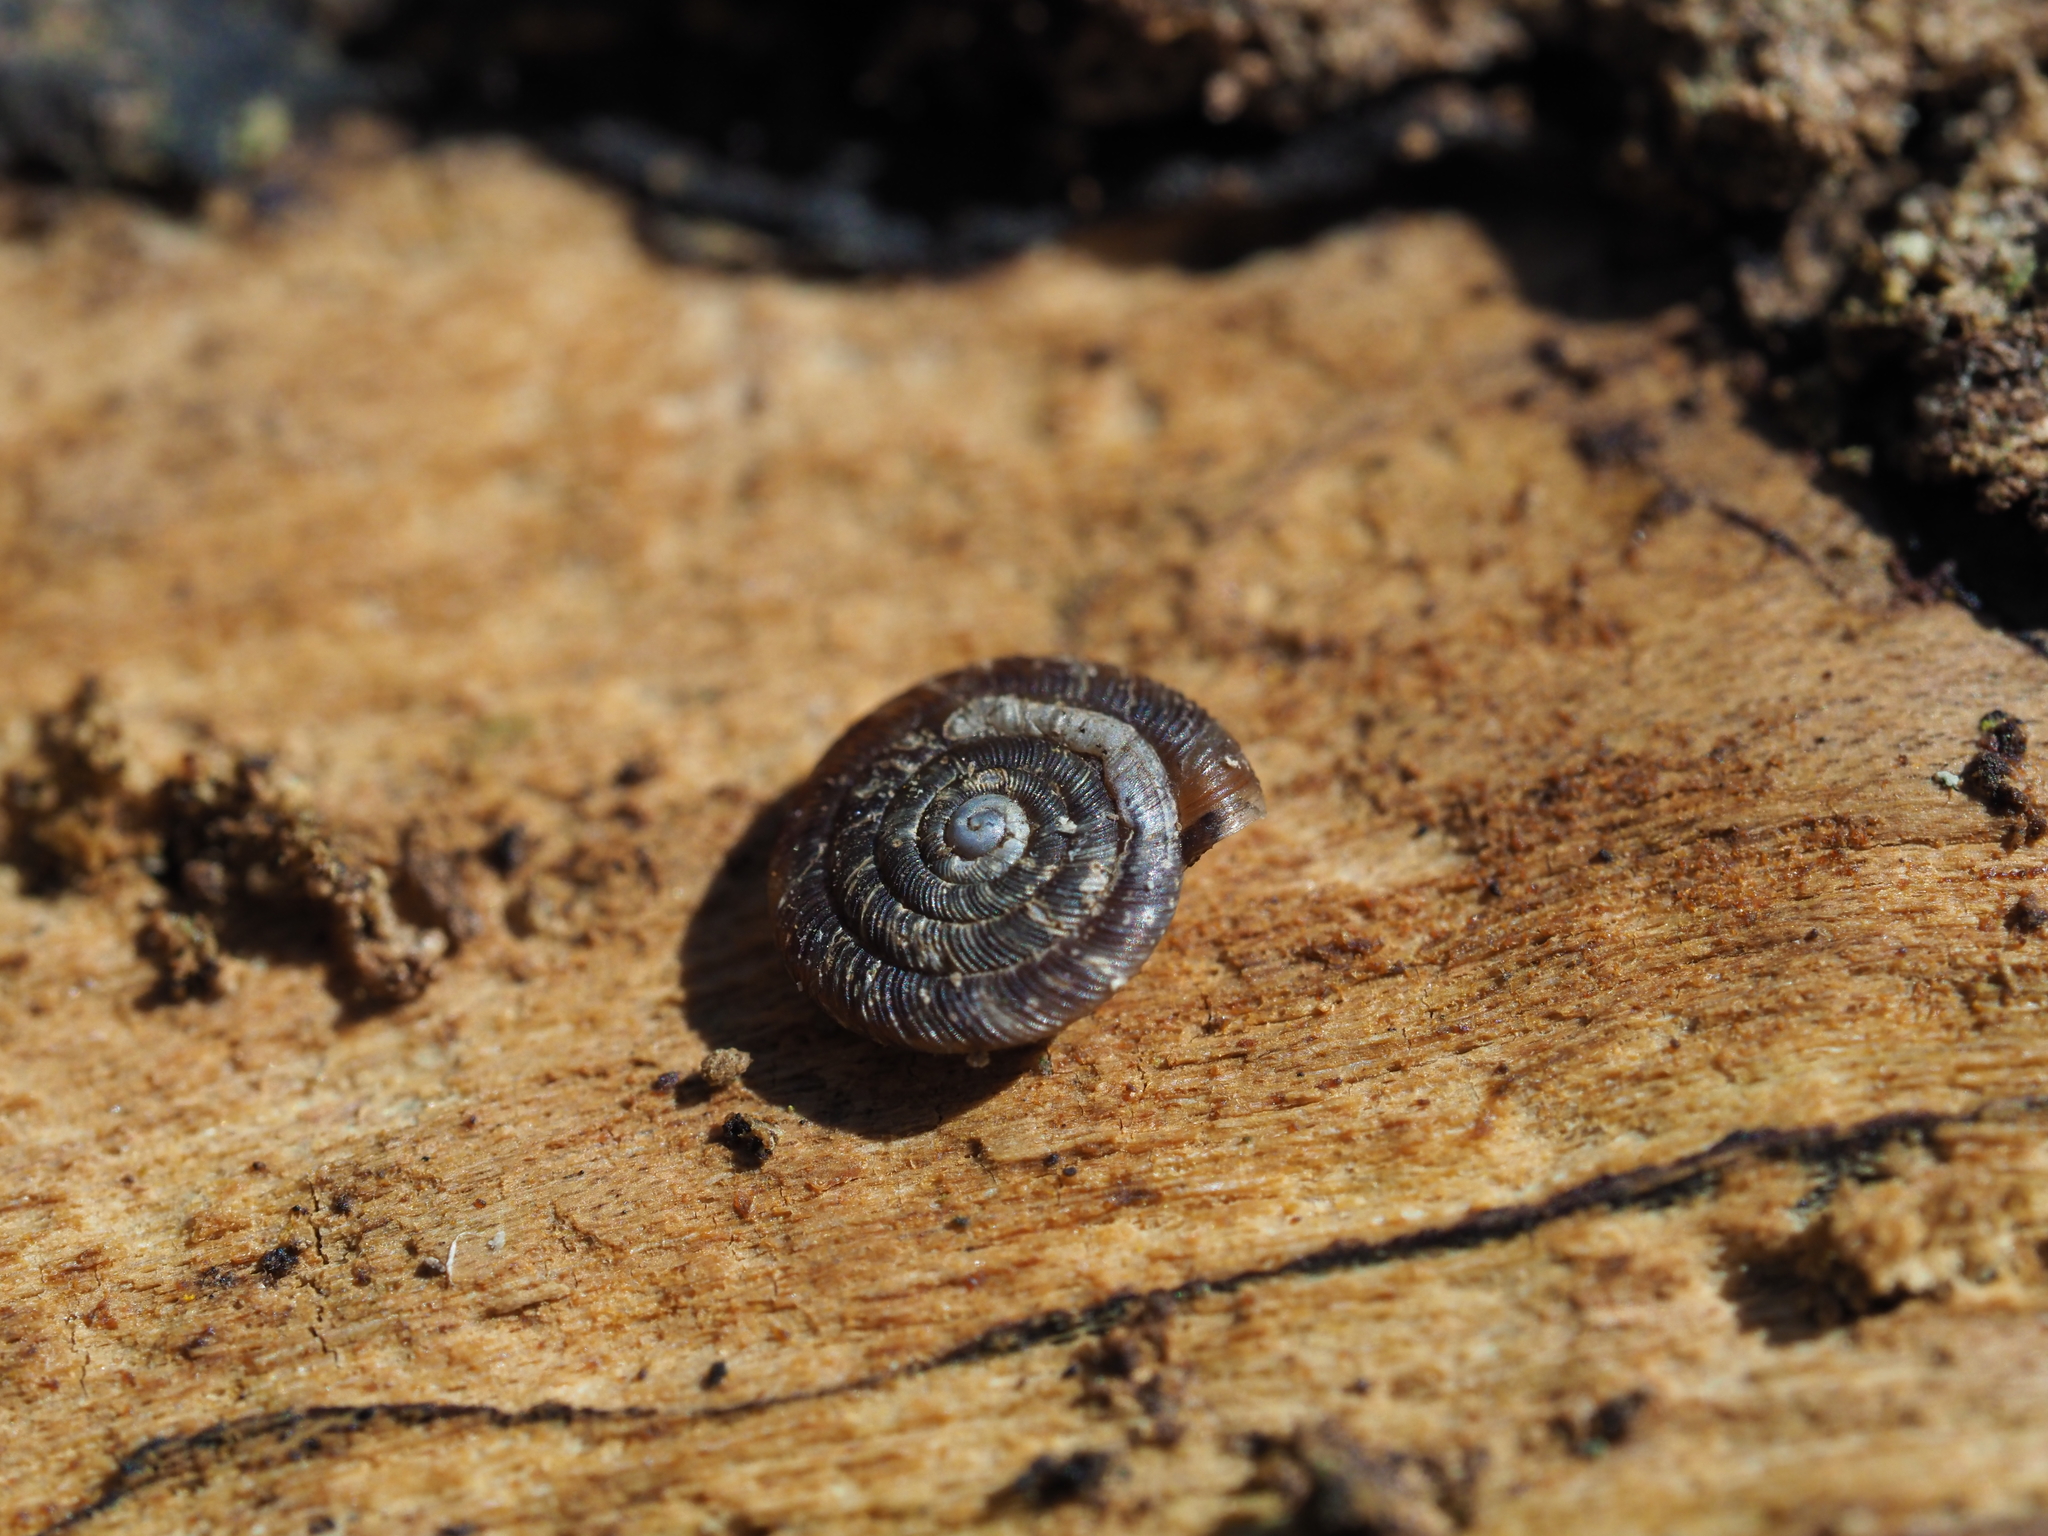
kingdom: Animalia
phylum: Mollusca
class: Gastropoda
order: Stylommatophora
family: Discidae
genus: Discus
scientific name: Discus rotundatus
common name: Rounded snail
